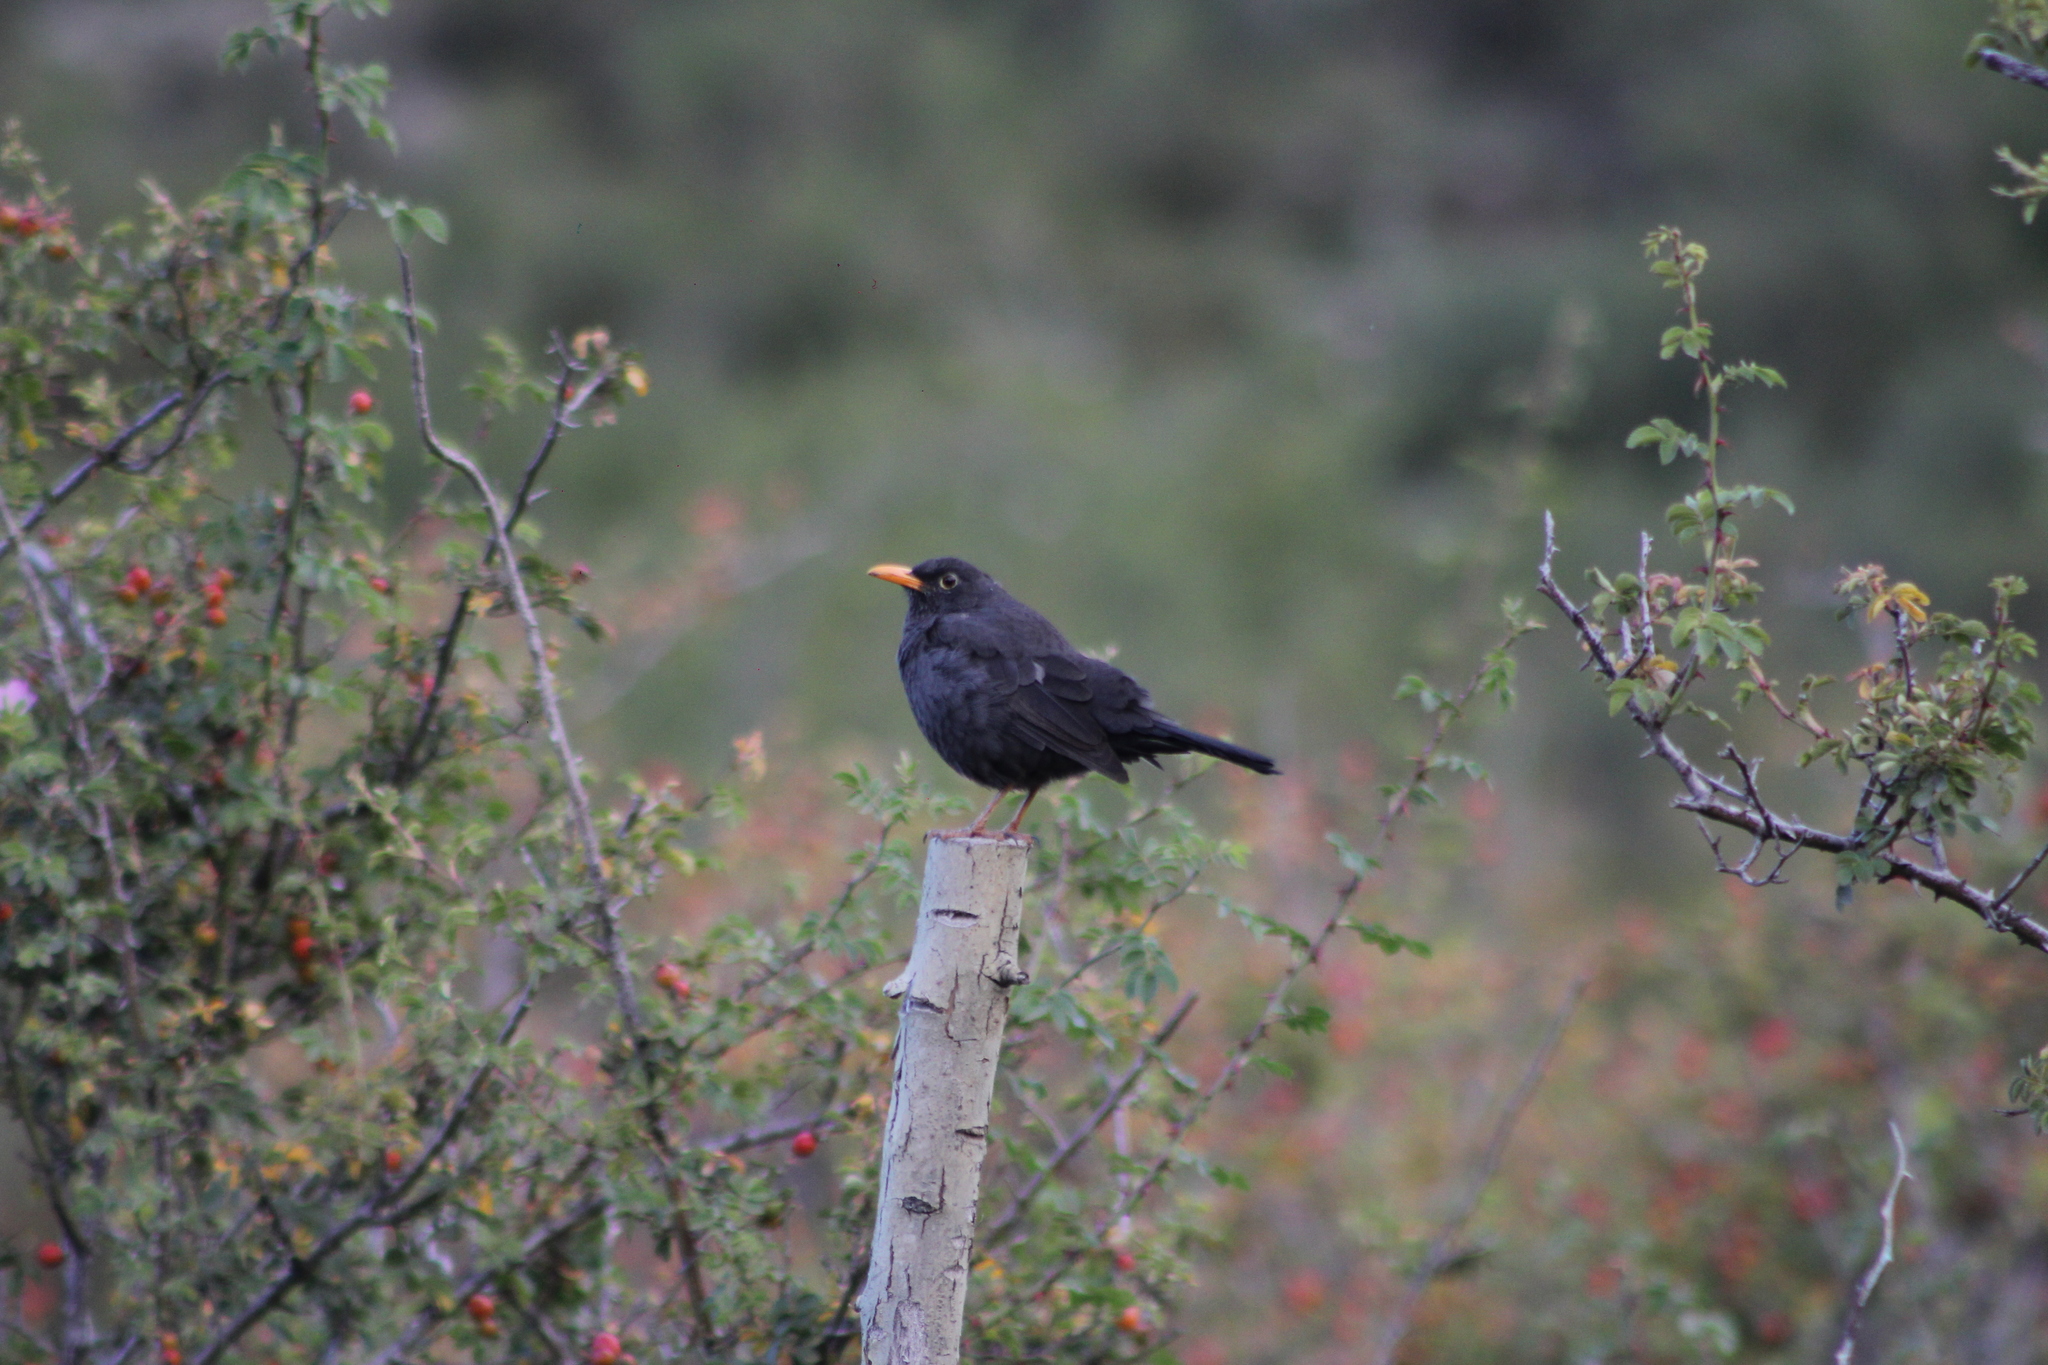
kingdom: Animalia
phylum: Chordata
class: Aves
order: Passeriformes
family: Turdidae
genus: Turdus
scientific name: Turdus chiguanco
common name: Chiguanco thrush
